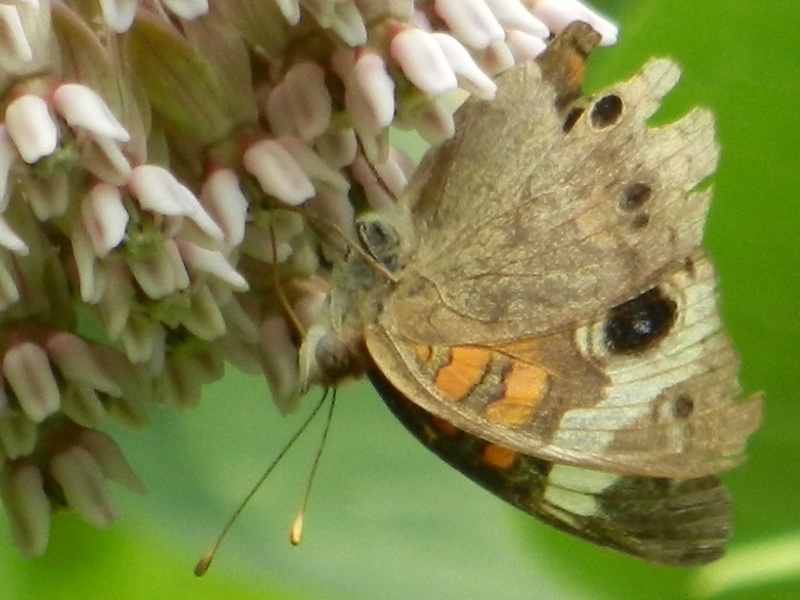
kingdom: Animalia
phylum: Arthropoda
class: Insecta
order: Lepidoptera
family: Nymphalidae
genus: Junonia
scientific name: Junonia coenia
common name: Common buckeye
